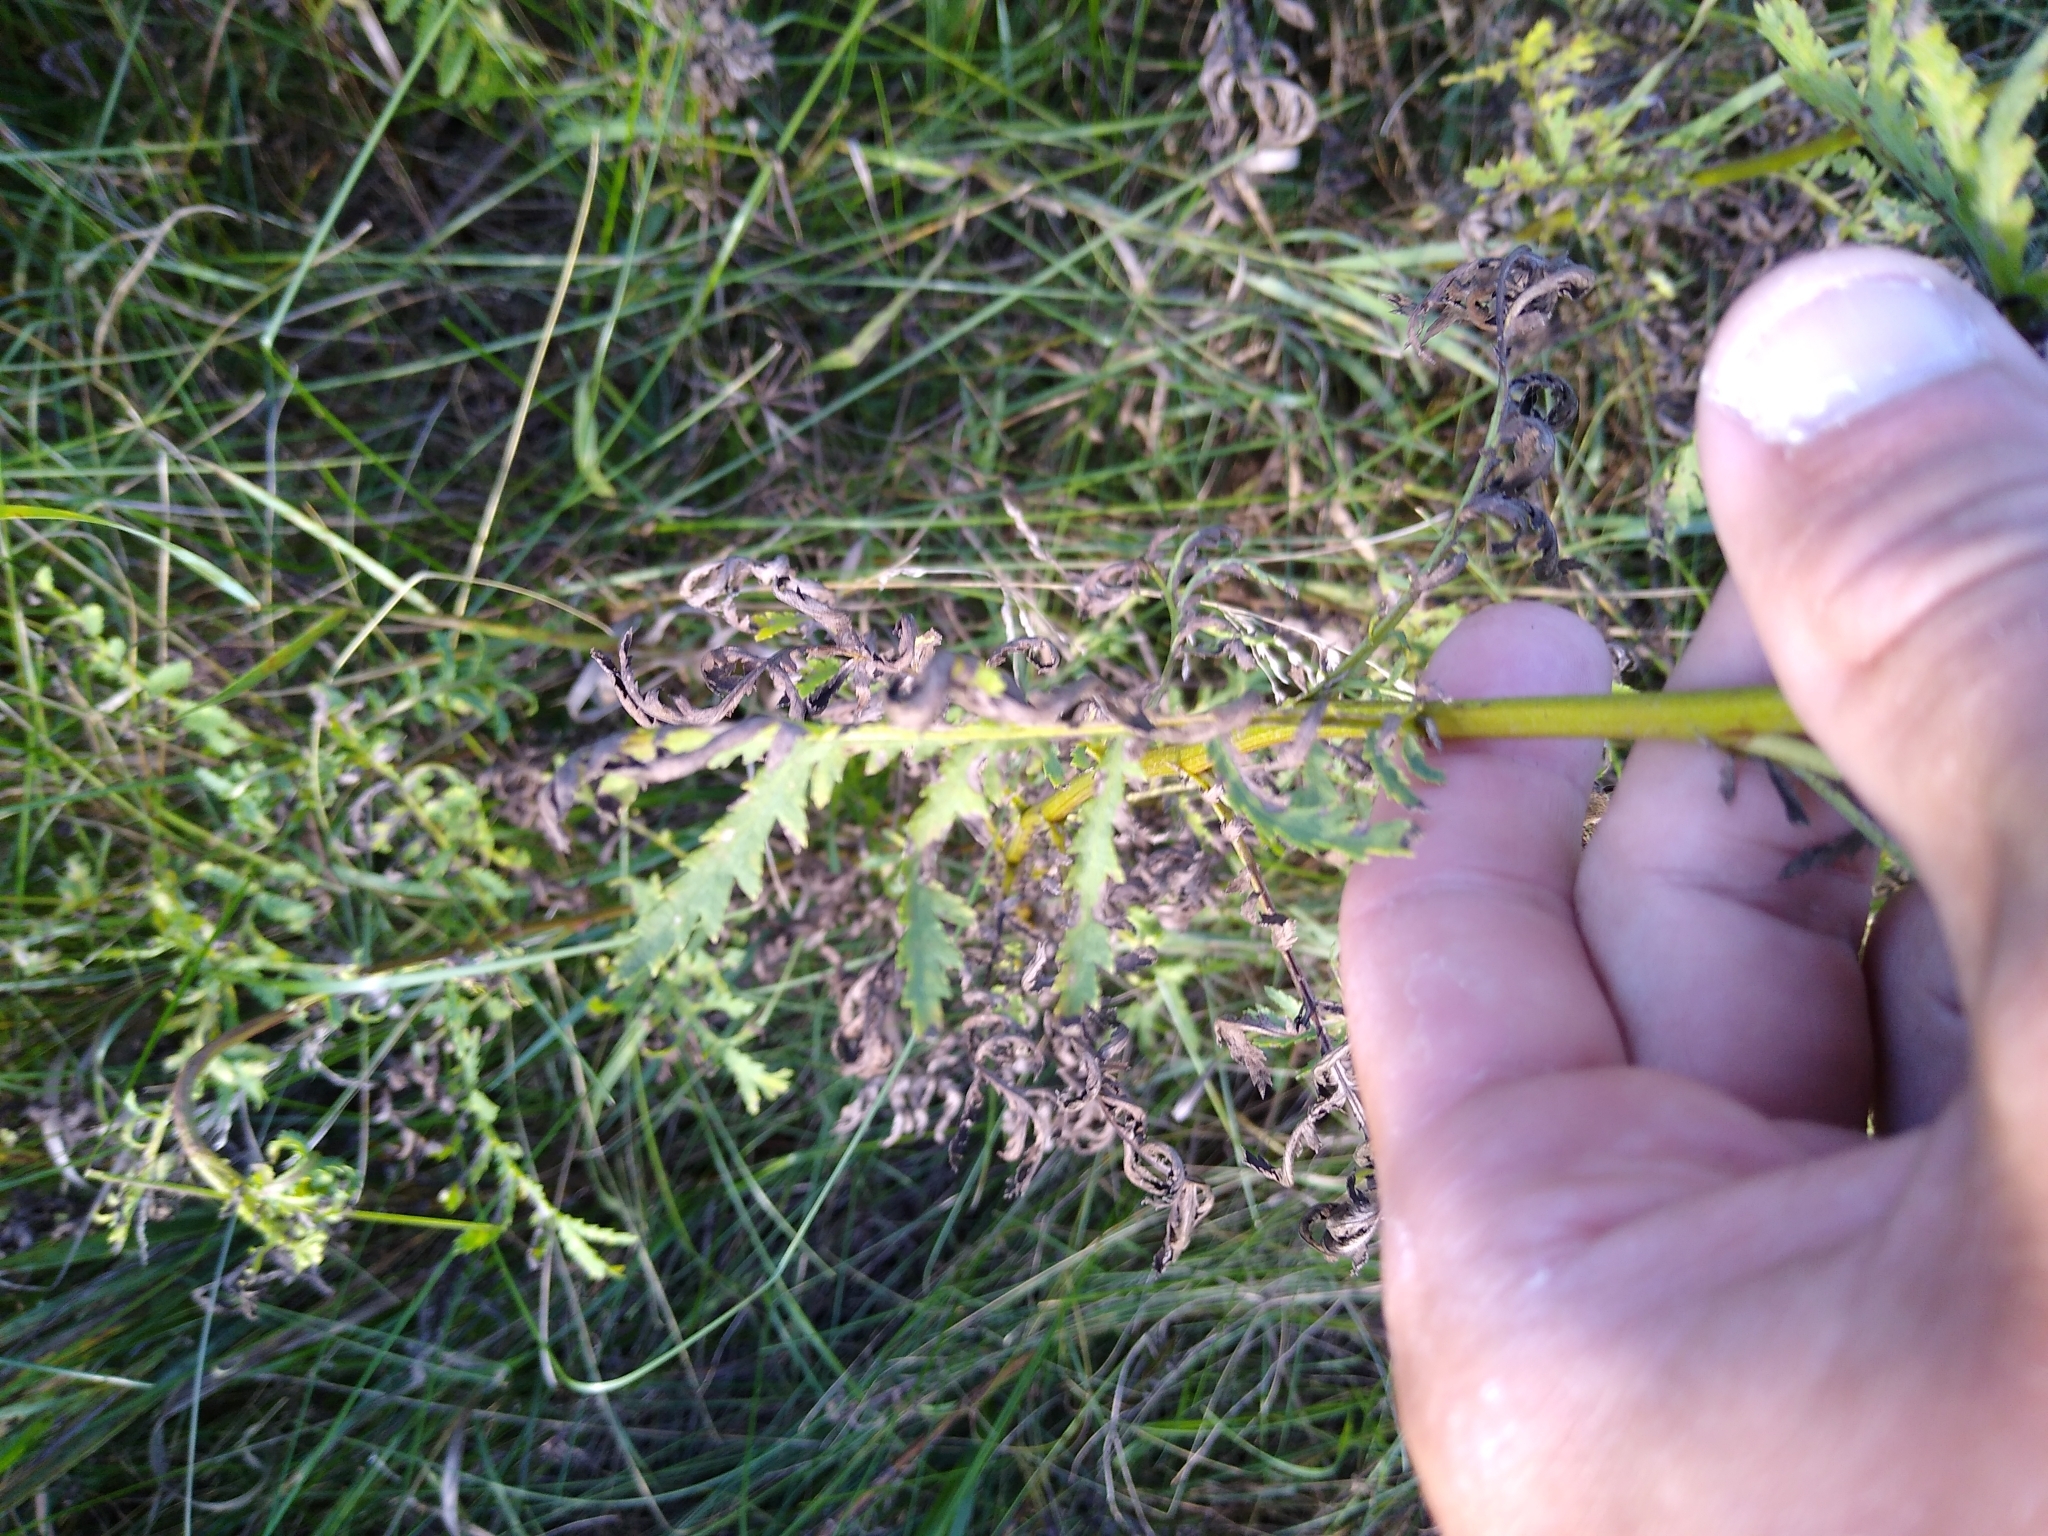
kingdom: Plantae
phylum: Tracheophyta
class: Magnoliopsida
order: Asterales
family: Asteraceae
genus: Tanacetum
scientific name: Tanacetum vulgare
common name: Common tansy
